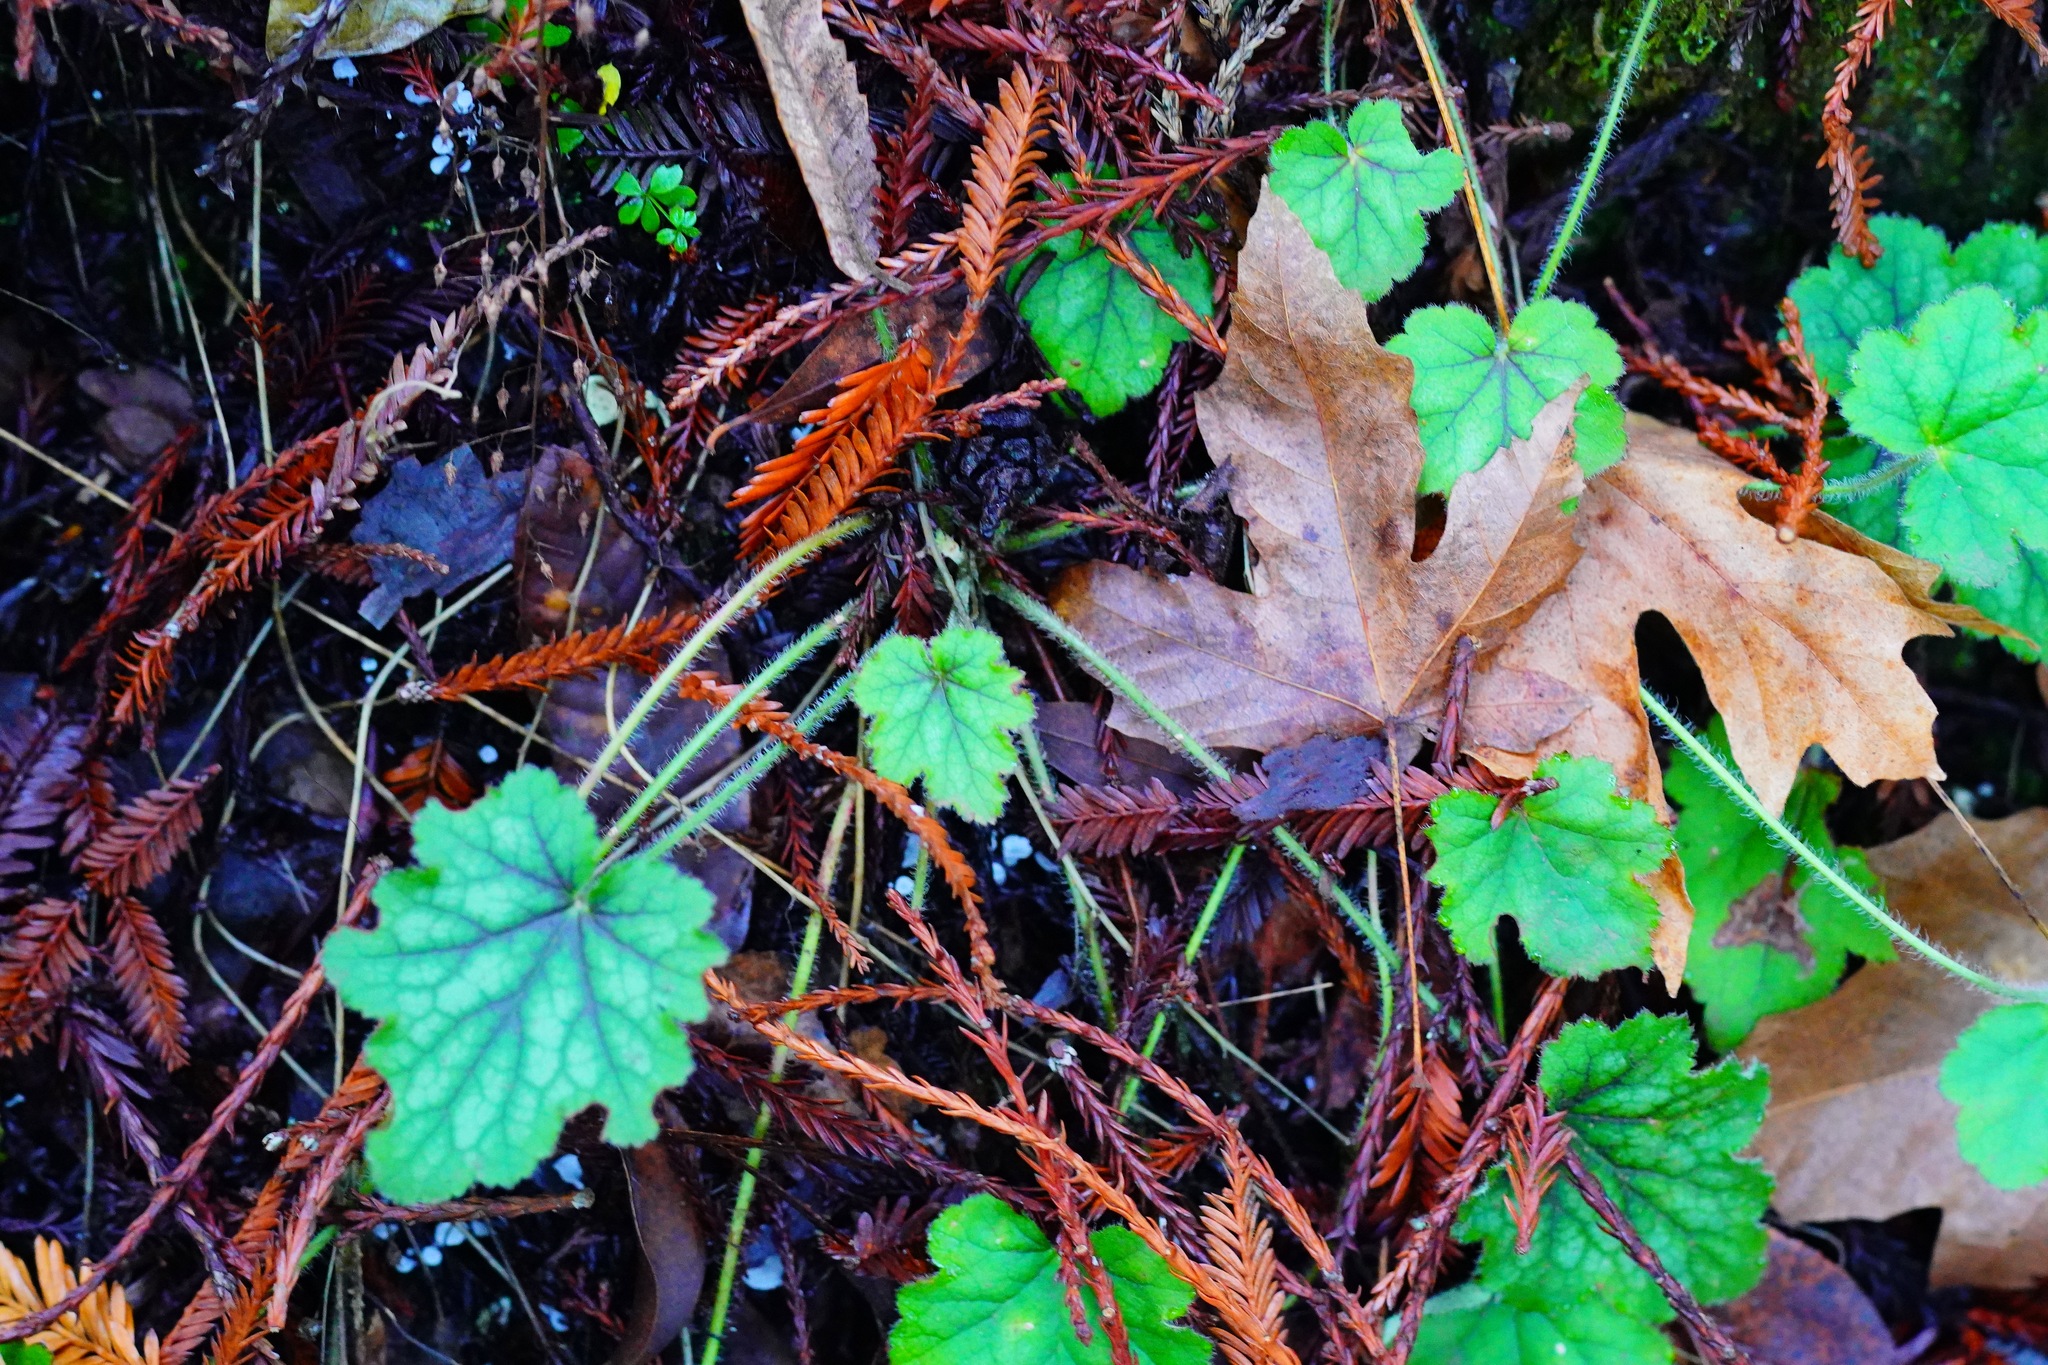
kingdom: Plantae
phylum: Tracheophyta
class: Magnoliopsida
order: Saxifragales
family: Saxifragaceae
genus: Heuchera
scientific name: Heuchera micrantha
